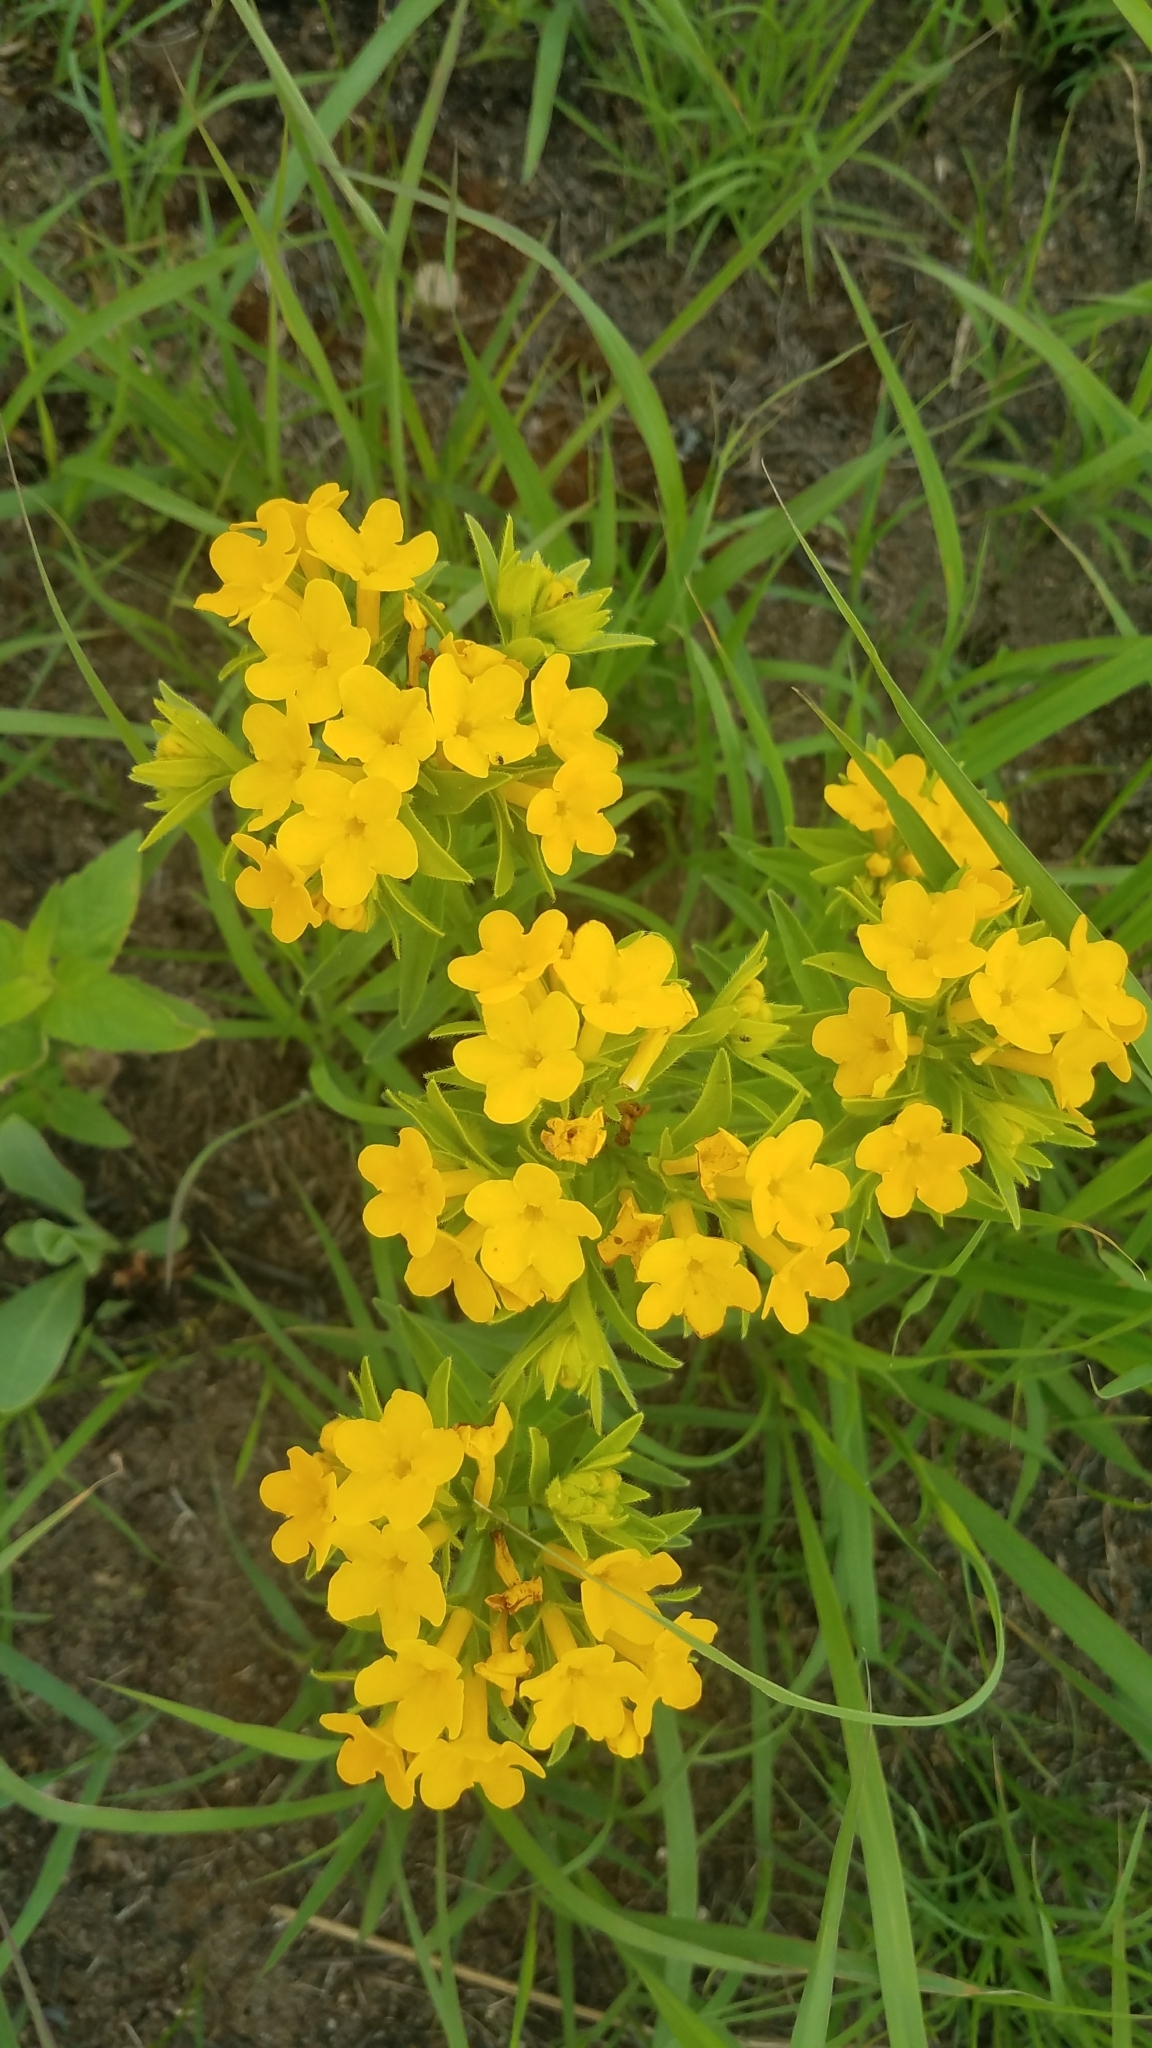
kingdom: Plantae
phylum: Tracheophyta
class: Magnoliopsida
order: Boraginales
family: Boraginaceae
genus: Lithospermum
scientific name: Lithospermum caroliniense
